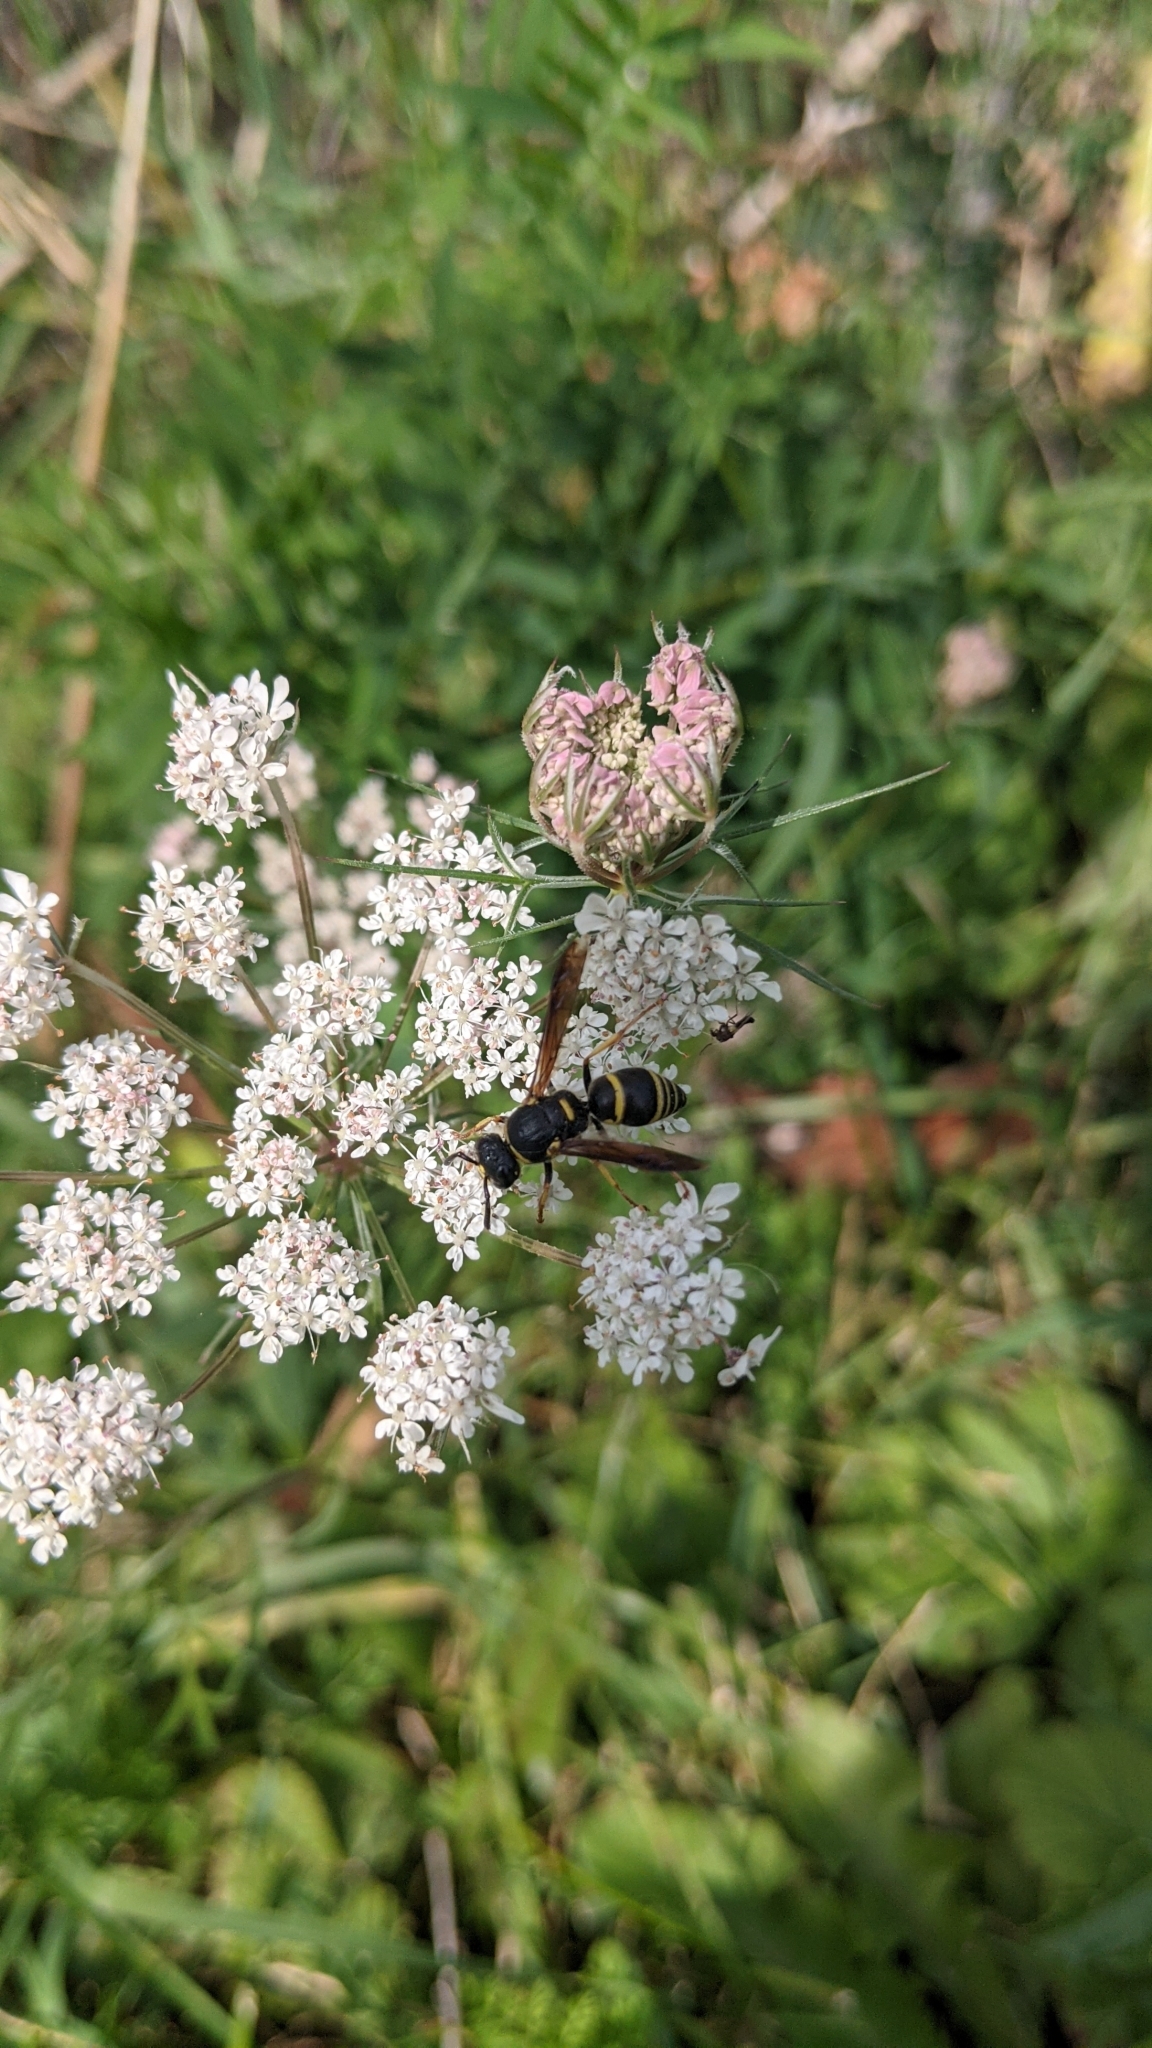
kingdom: Animalia
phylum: Arthropoda
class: Insecta
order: Hymenoptera
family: Eumenidae
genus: Euodynerus
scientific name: Euodynerus foraminatus
